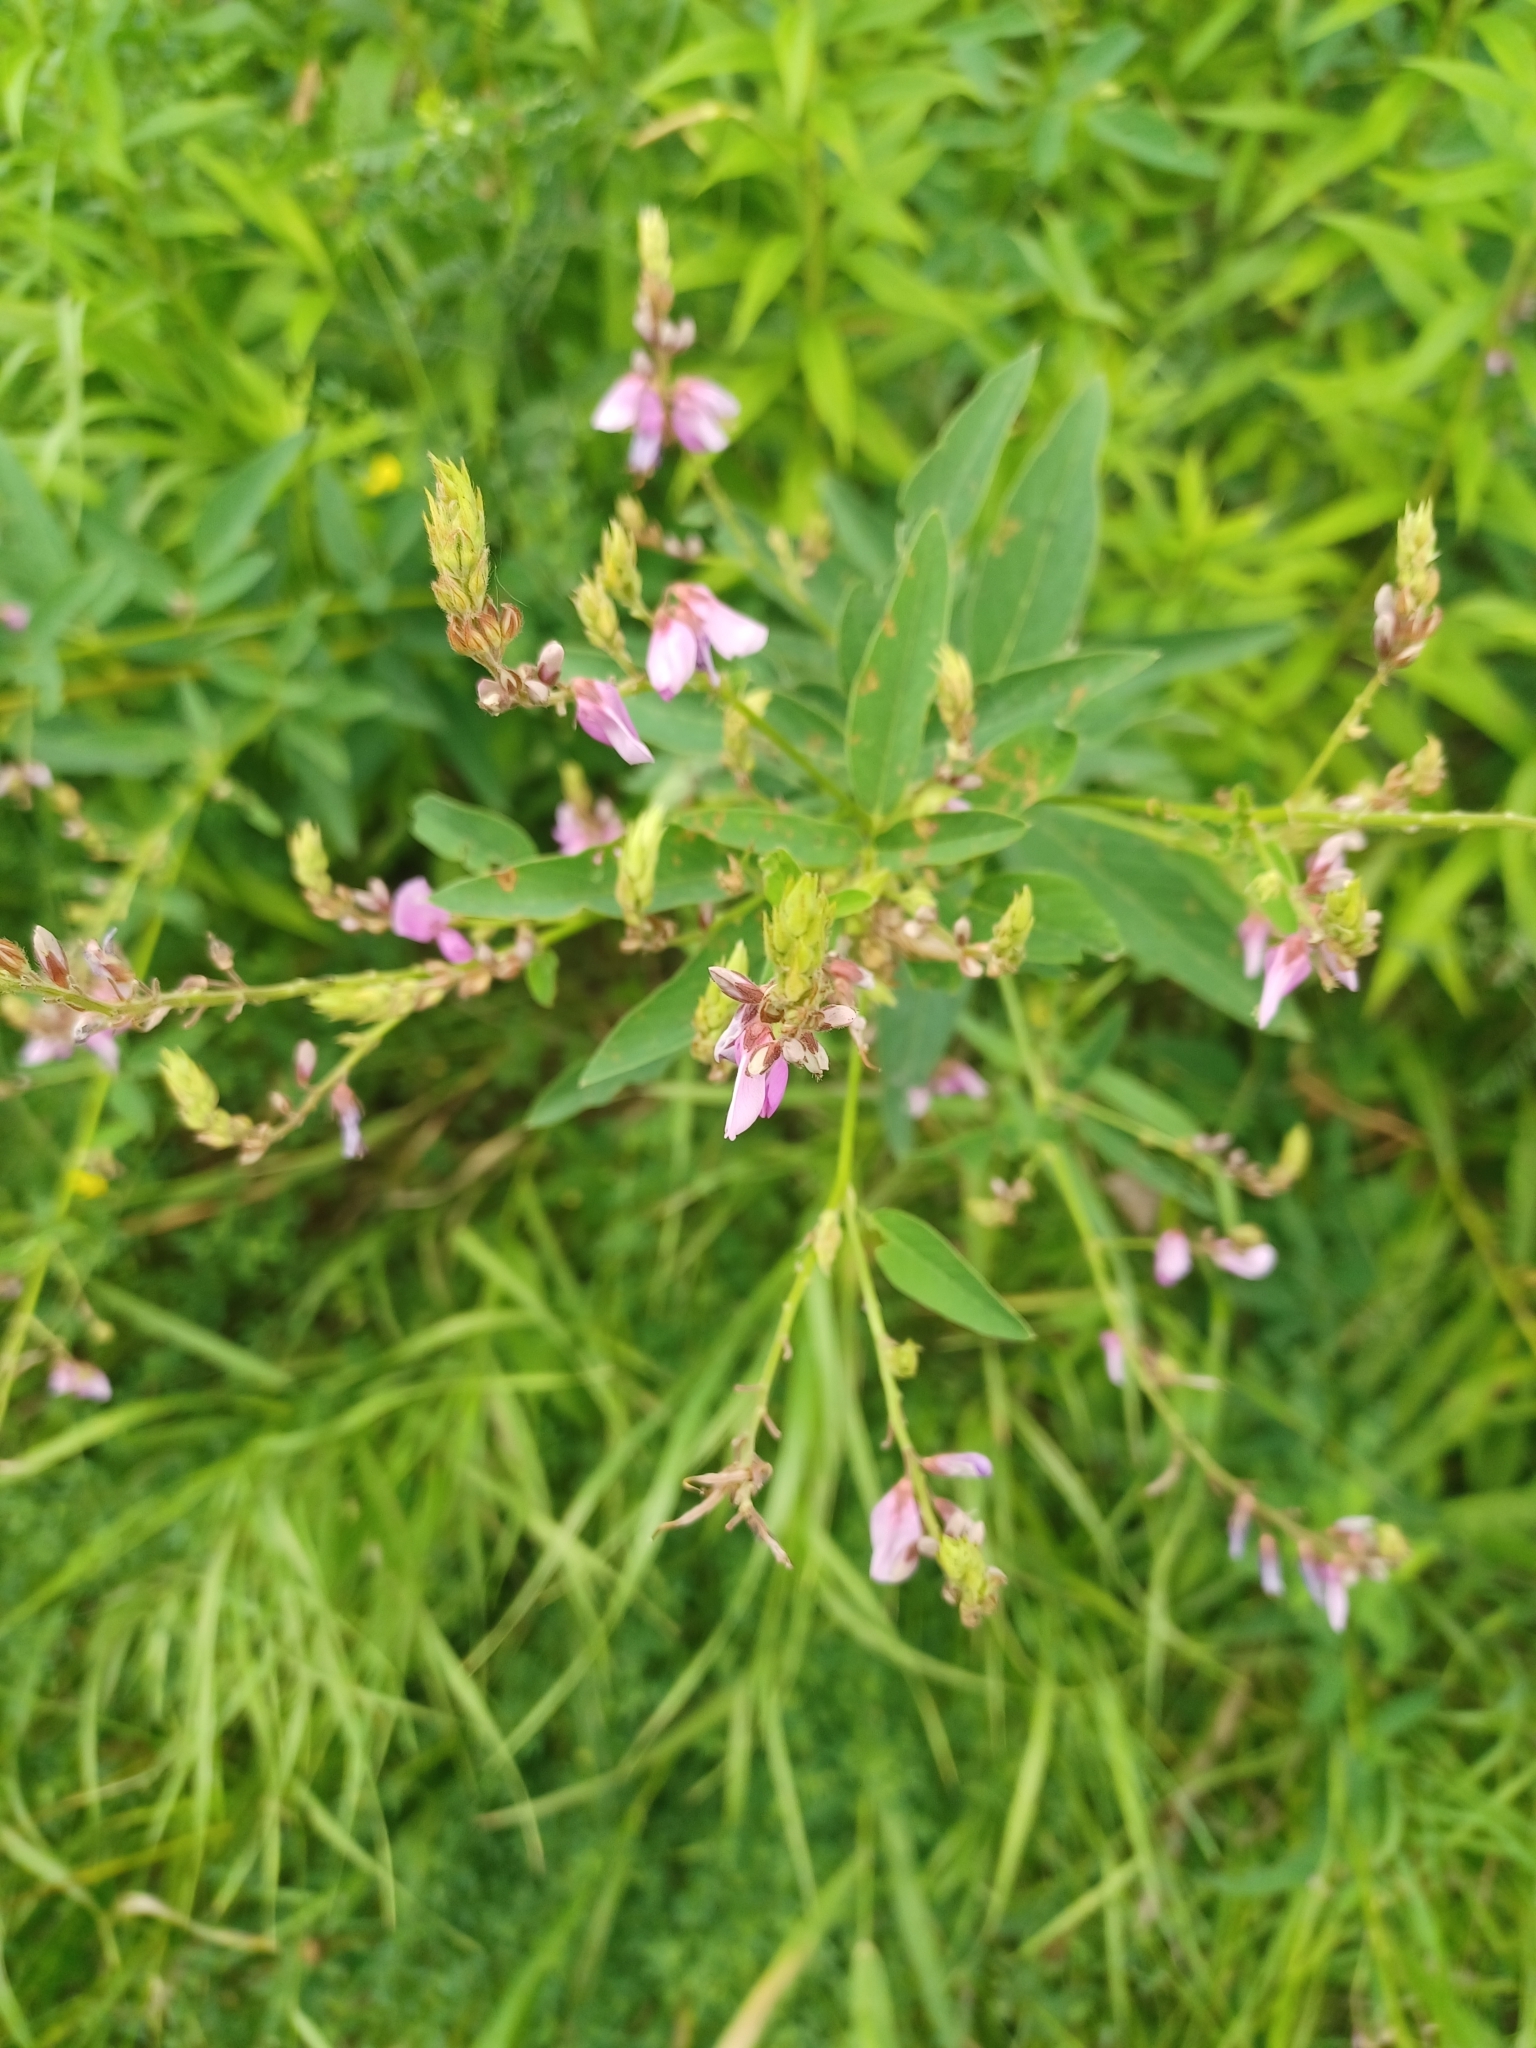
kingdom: Plantae
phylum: Tracheophyta
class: Magnoliopsida
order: Fabales
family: Fabaceae
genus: Desmodium
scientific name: Desmodium canadense
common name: Canada tick-trefoil
